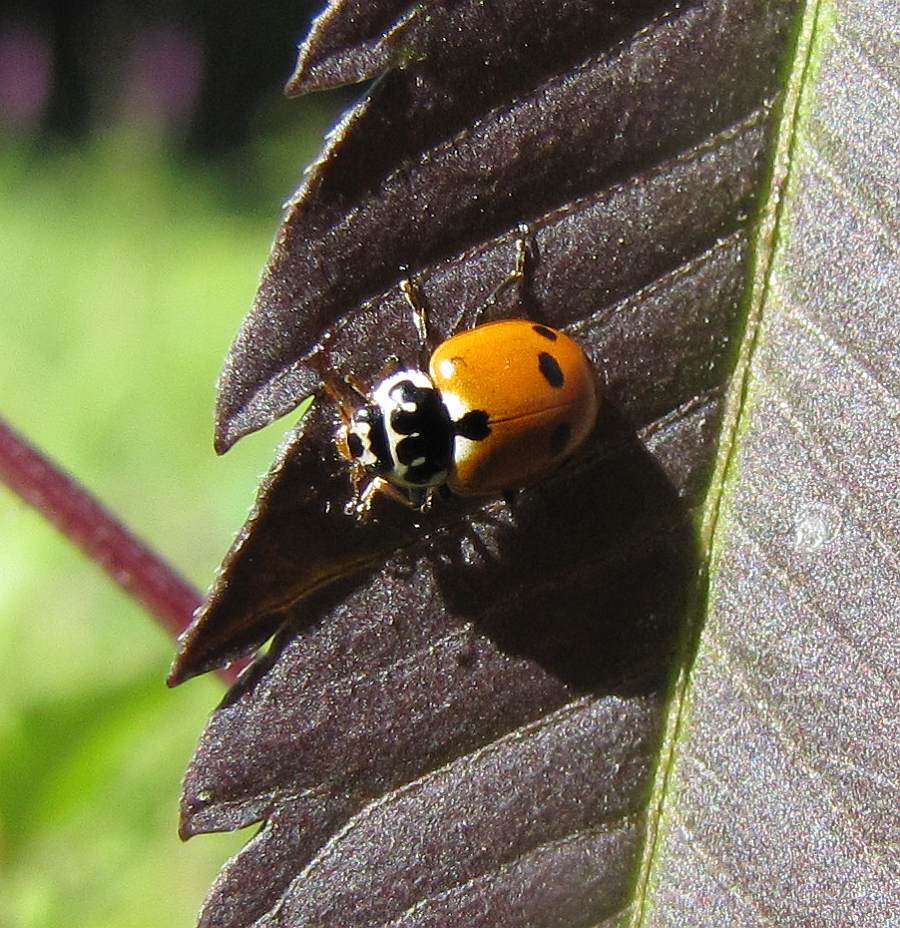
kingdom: Animalia
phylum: Arthropoda
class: Insecta
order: Coleoptera
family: Coccinellidae
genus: Hippodamia
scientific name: Hippodamia variegata
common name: Ladybird beetle
